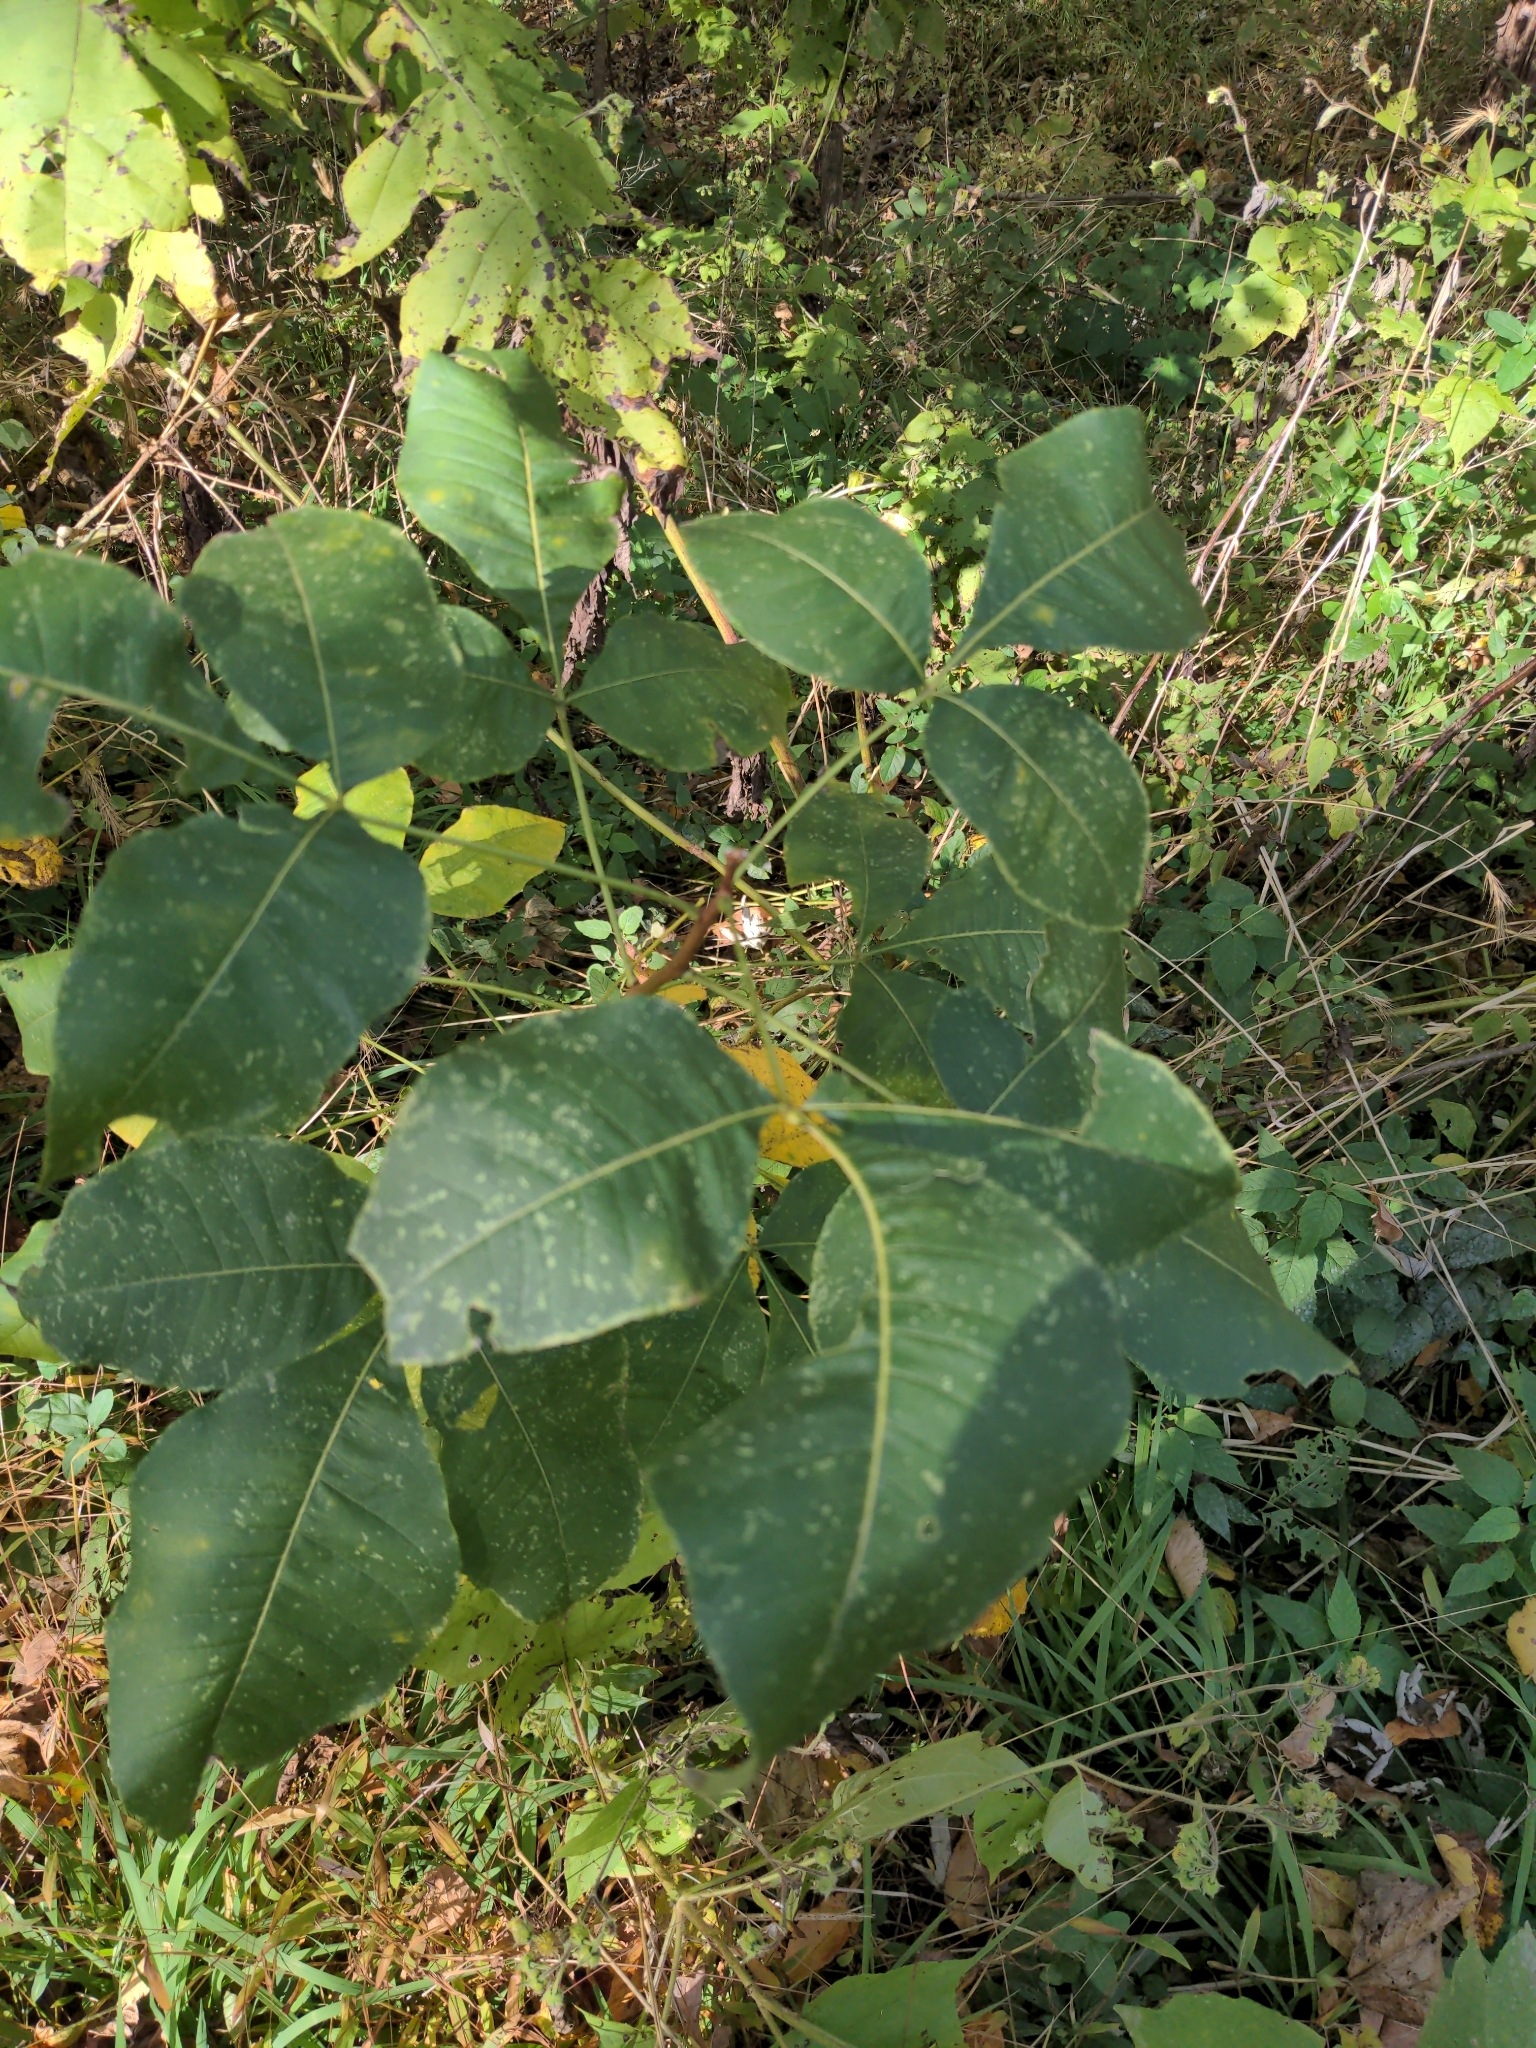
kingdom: Plantae
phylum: Tracheophyta
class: Magnoliopsida
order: Sapindales
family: Rutaceae
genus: Ptelea
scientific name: Ptelea trifoliata
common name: Common hop-tree
